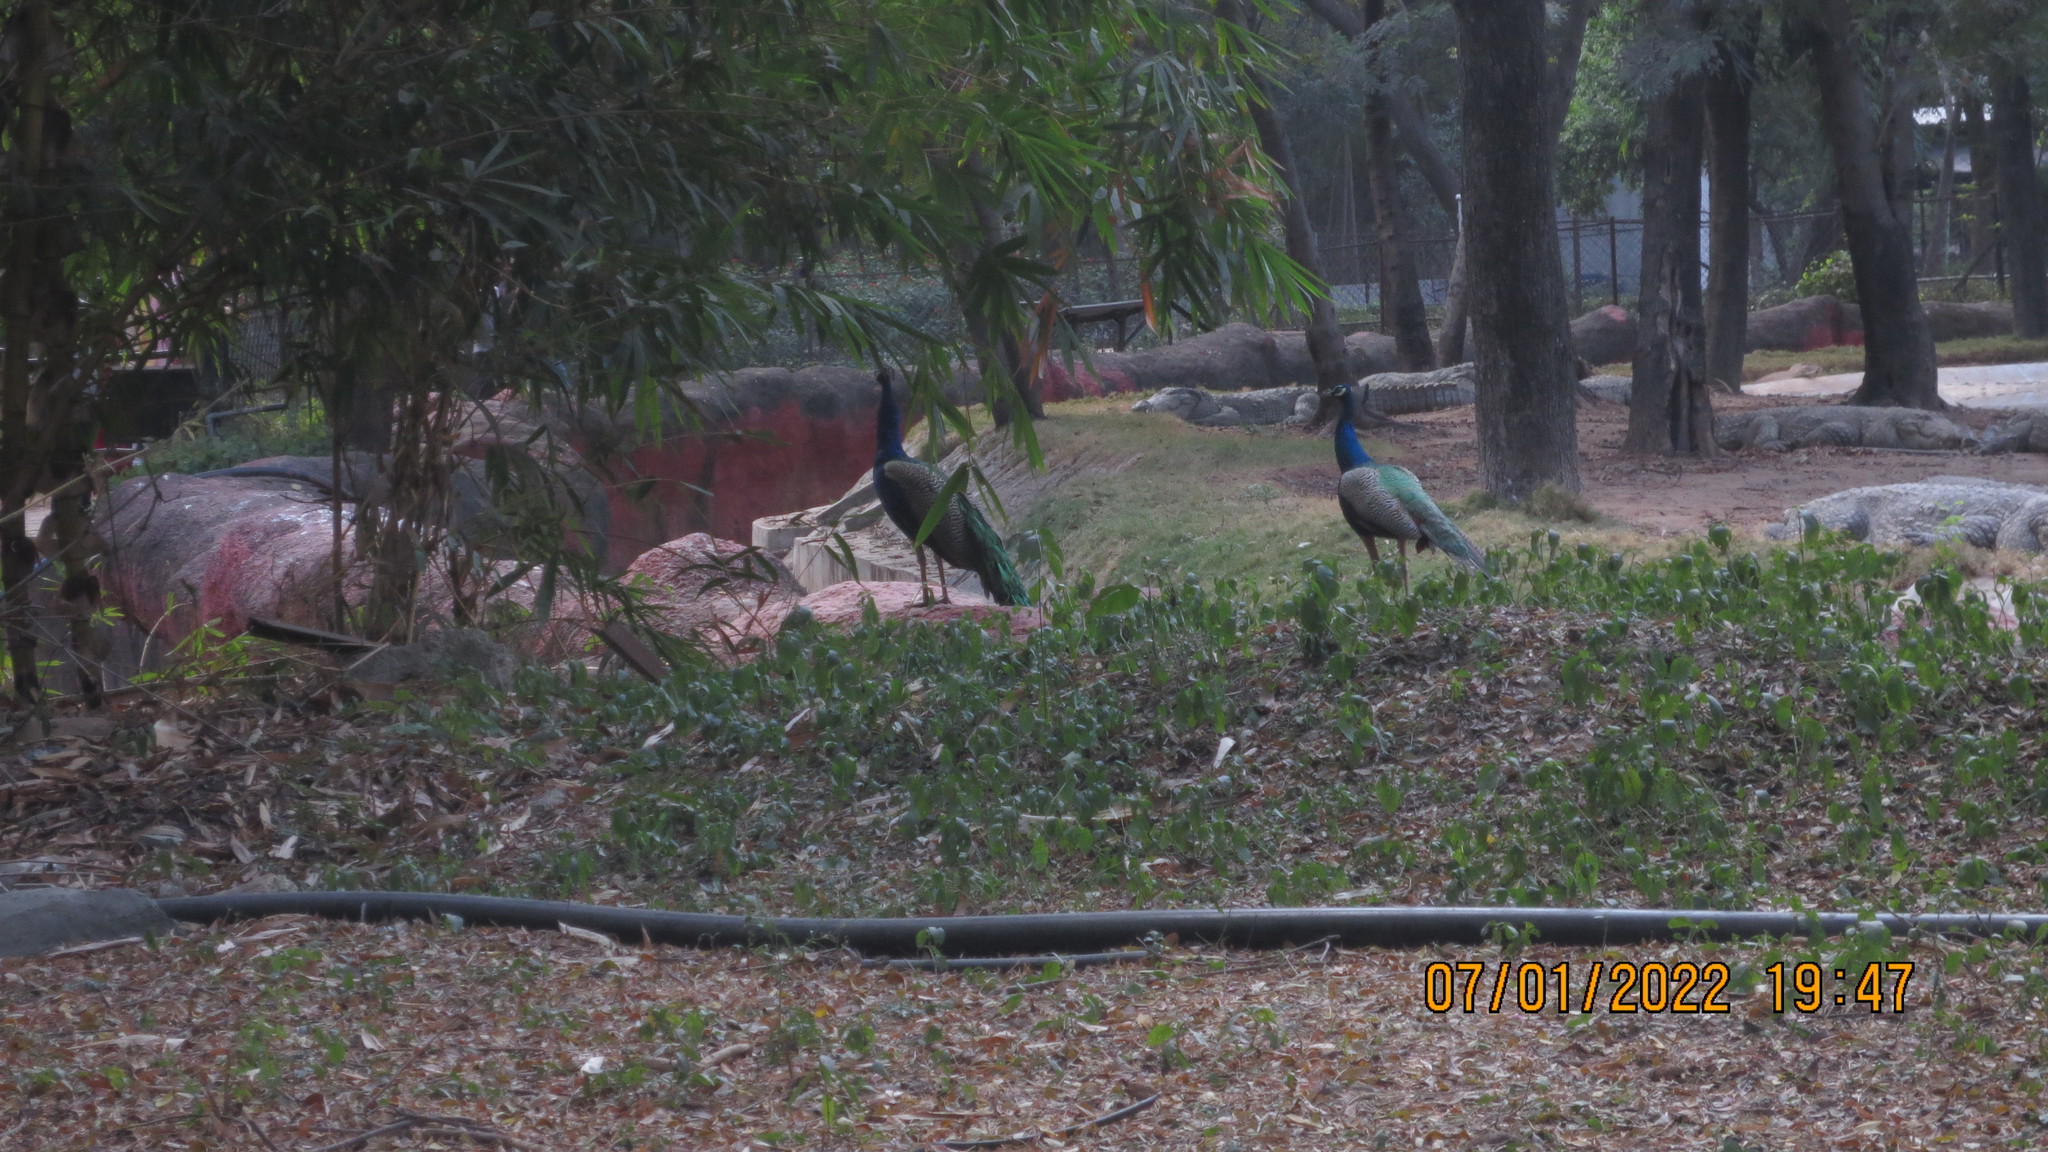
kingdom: Animalia
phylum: Chordata
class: Aves
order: Galliformes
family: Phasianidae
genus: Pavo
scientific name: Pavo cristatus
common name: Indian peafowl
